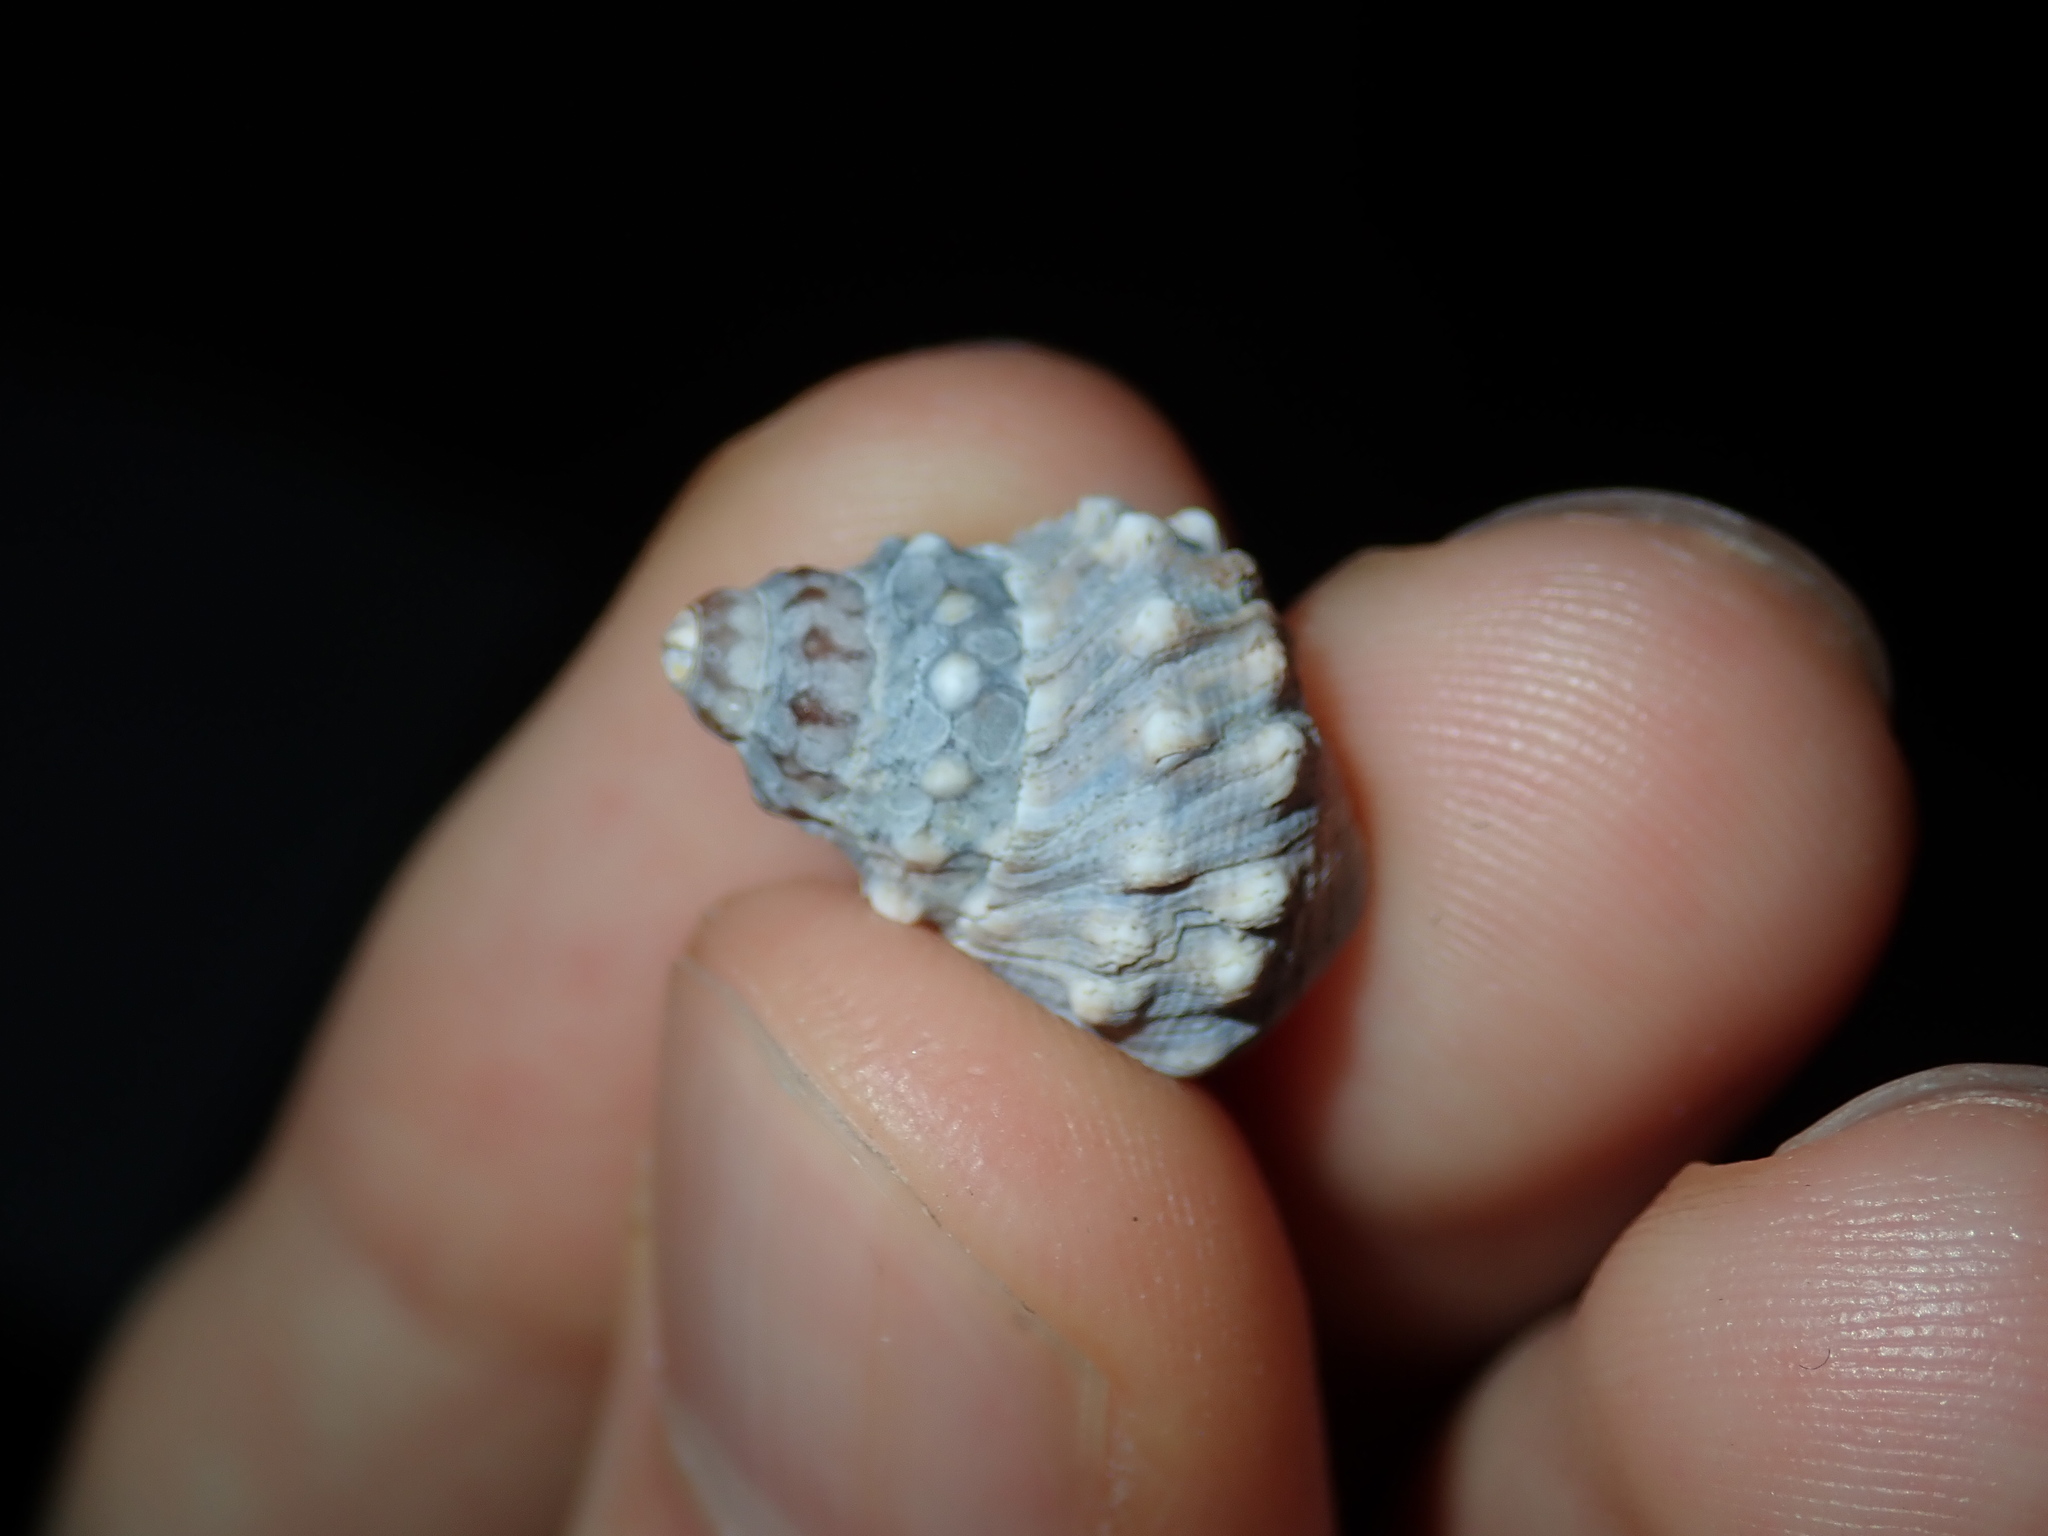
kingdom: Animalia
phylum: Mollusca
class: Gastropoda
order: Littorinimorpha
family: Littorinidae
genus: Nodilittorina
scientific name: Nodilittorina pyramidalis
